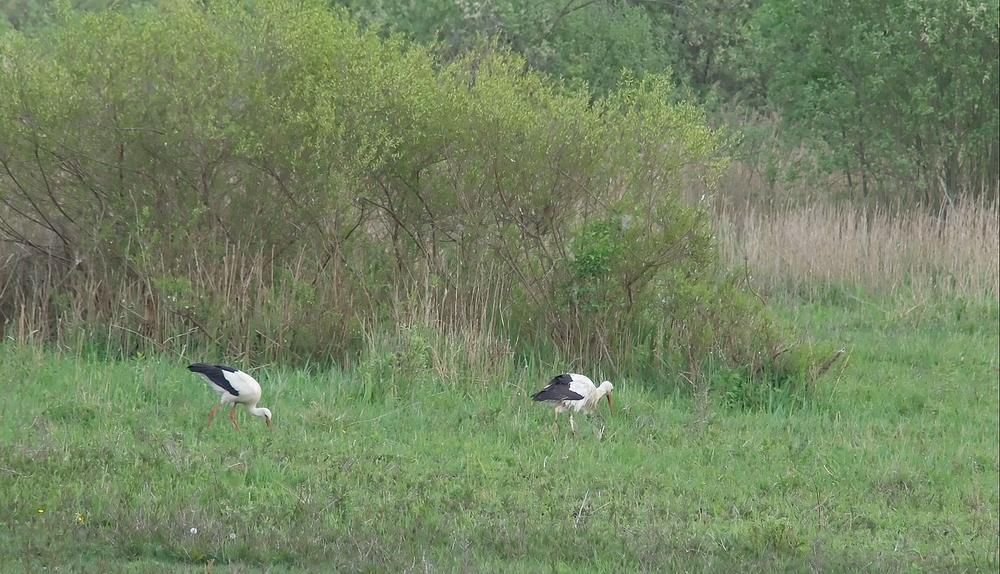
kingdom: Animalia
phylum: Chordata
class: Aves
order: Ciconiiformes
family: Ciconiidae
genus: Ciconia
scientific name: Ciconia ciconia
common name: White stork
